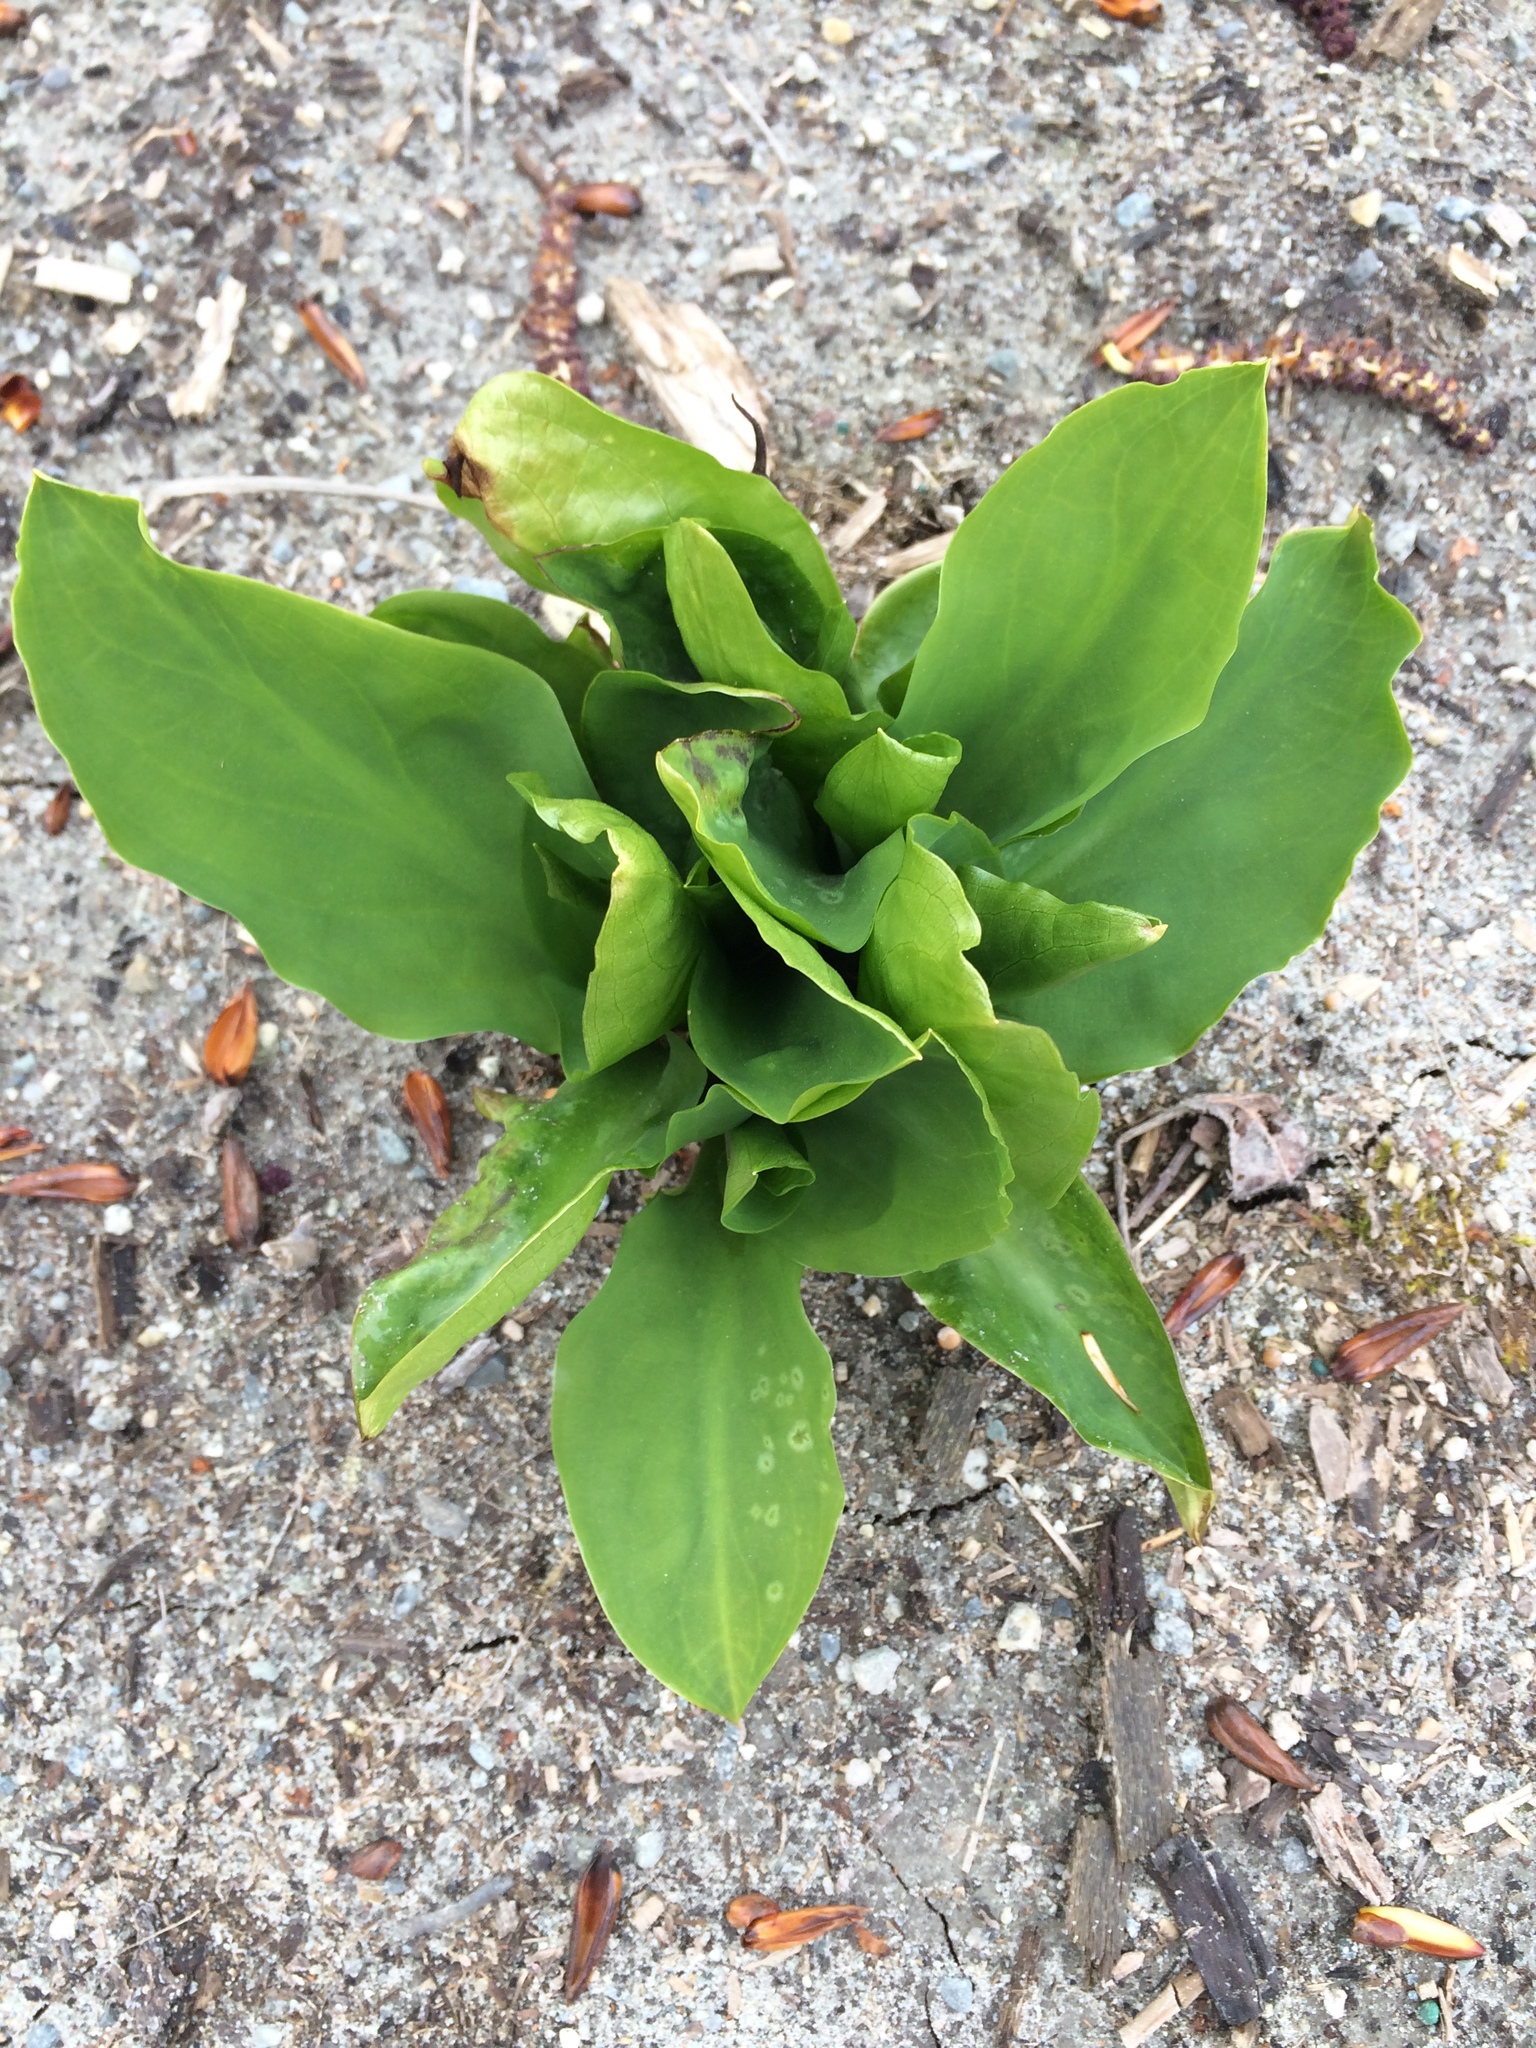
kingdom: Plantae
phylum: Tracheophyta
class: Liliopsida
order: Alismatales
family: Araceae
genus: Lysichiton
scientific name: Lysichiton americanus
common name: American skunk cabbage
